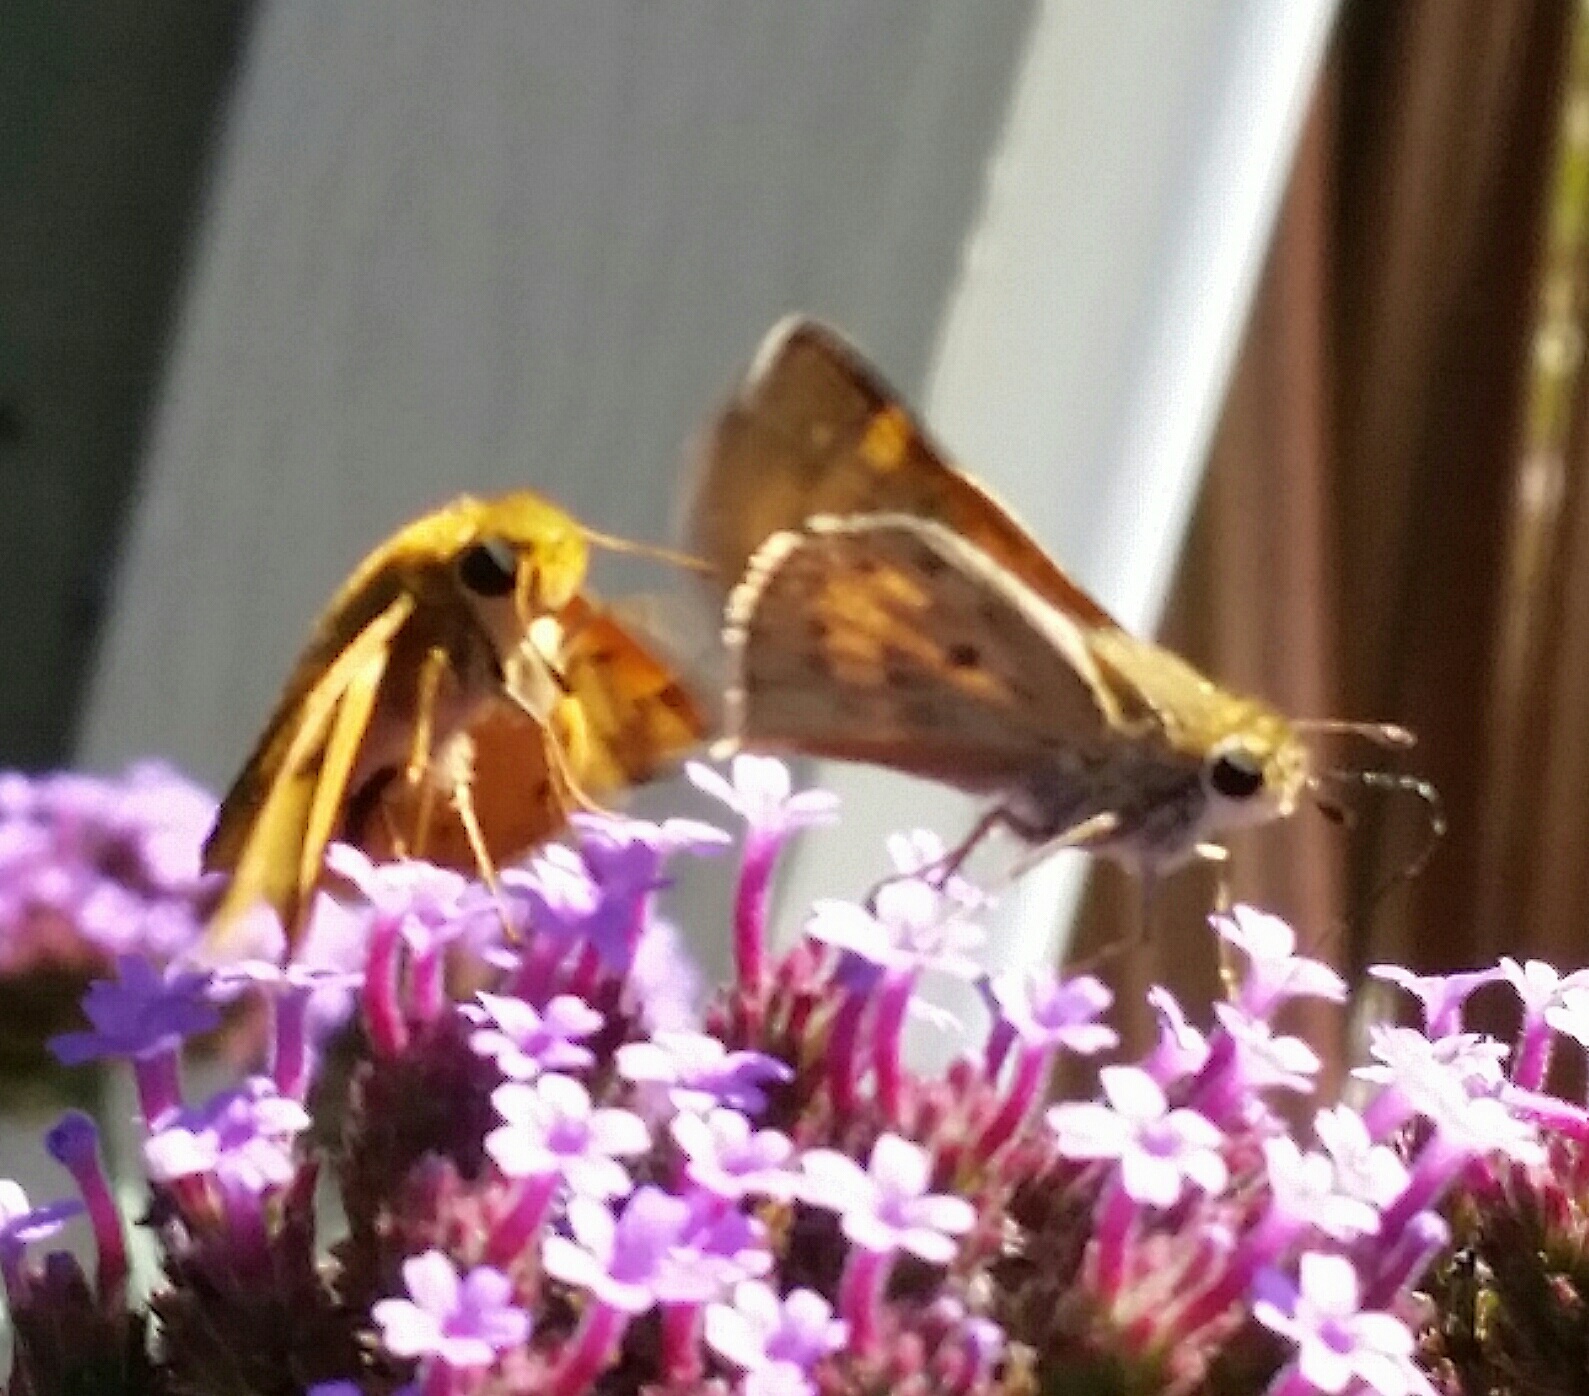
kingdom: Animalia
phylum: Arthropoda
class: Insecta
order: Lepidoptera
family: Hesperiidae
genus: Hylephila
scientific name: Hylephila phyleus
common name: Fiery skipper
